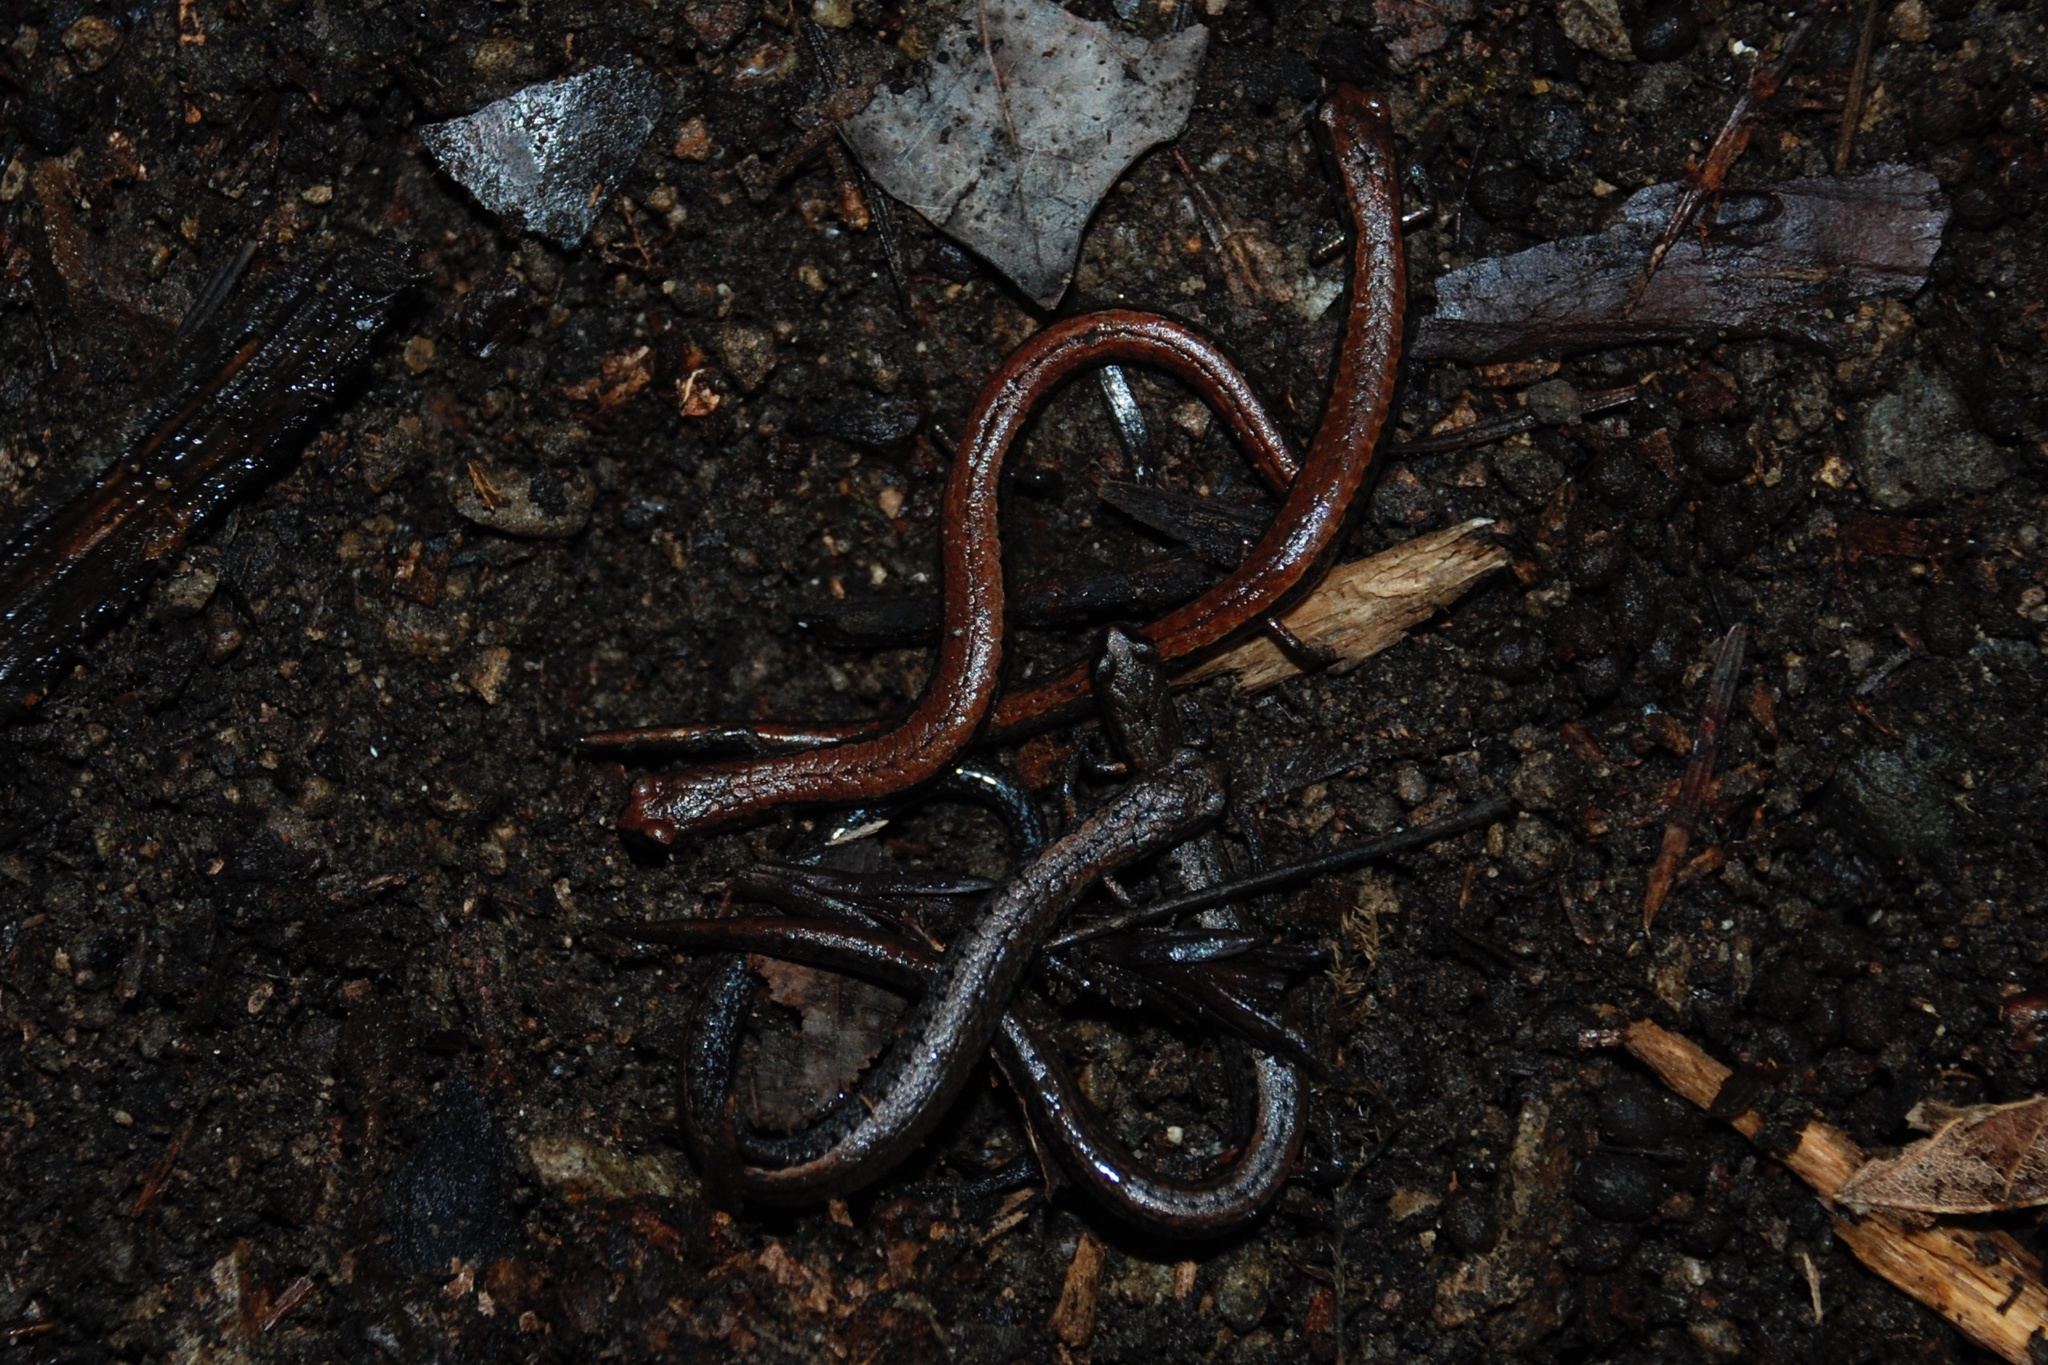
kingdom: Animalia
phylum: Chordata
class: Amphibia
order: Caudata
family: Plethodontidae
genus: Batrachoseps
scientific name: Batrachoseps attenuatus
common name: California slender salamander
